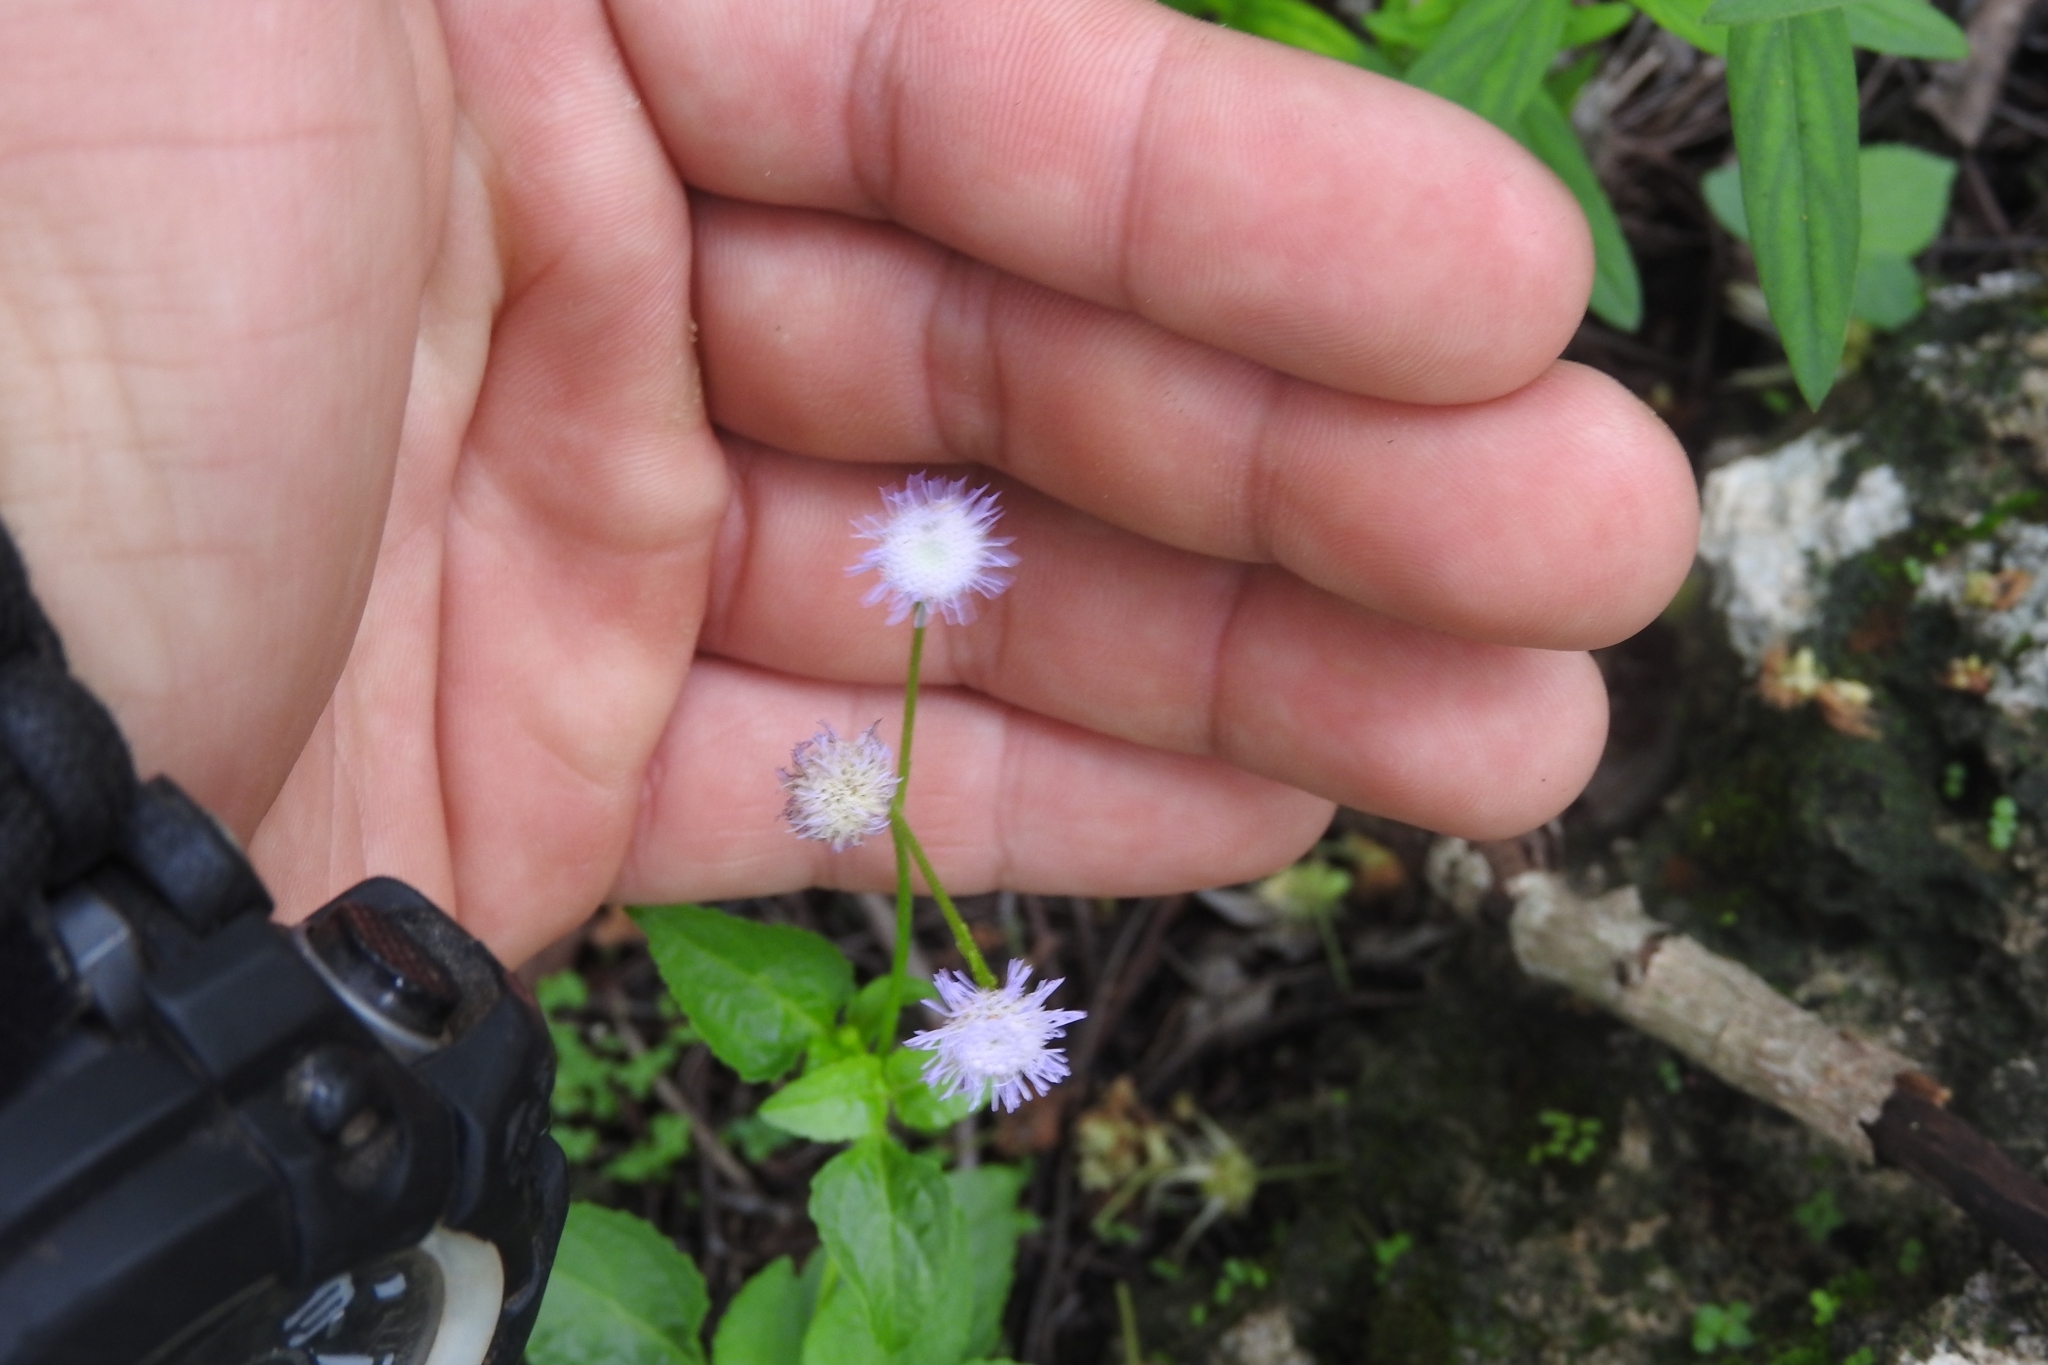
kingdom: Plantae
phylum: Tracheophyta
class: Magnoliopsida
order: Asterales
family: Asteraceae
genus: Ageratum
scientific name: Ageratum gaumeri
